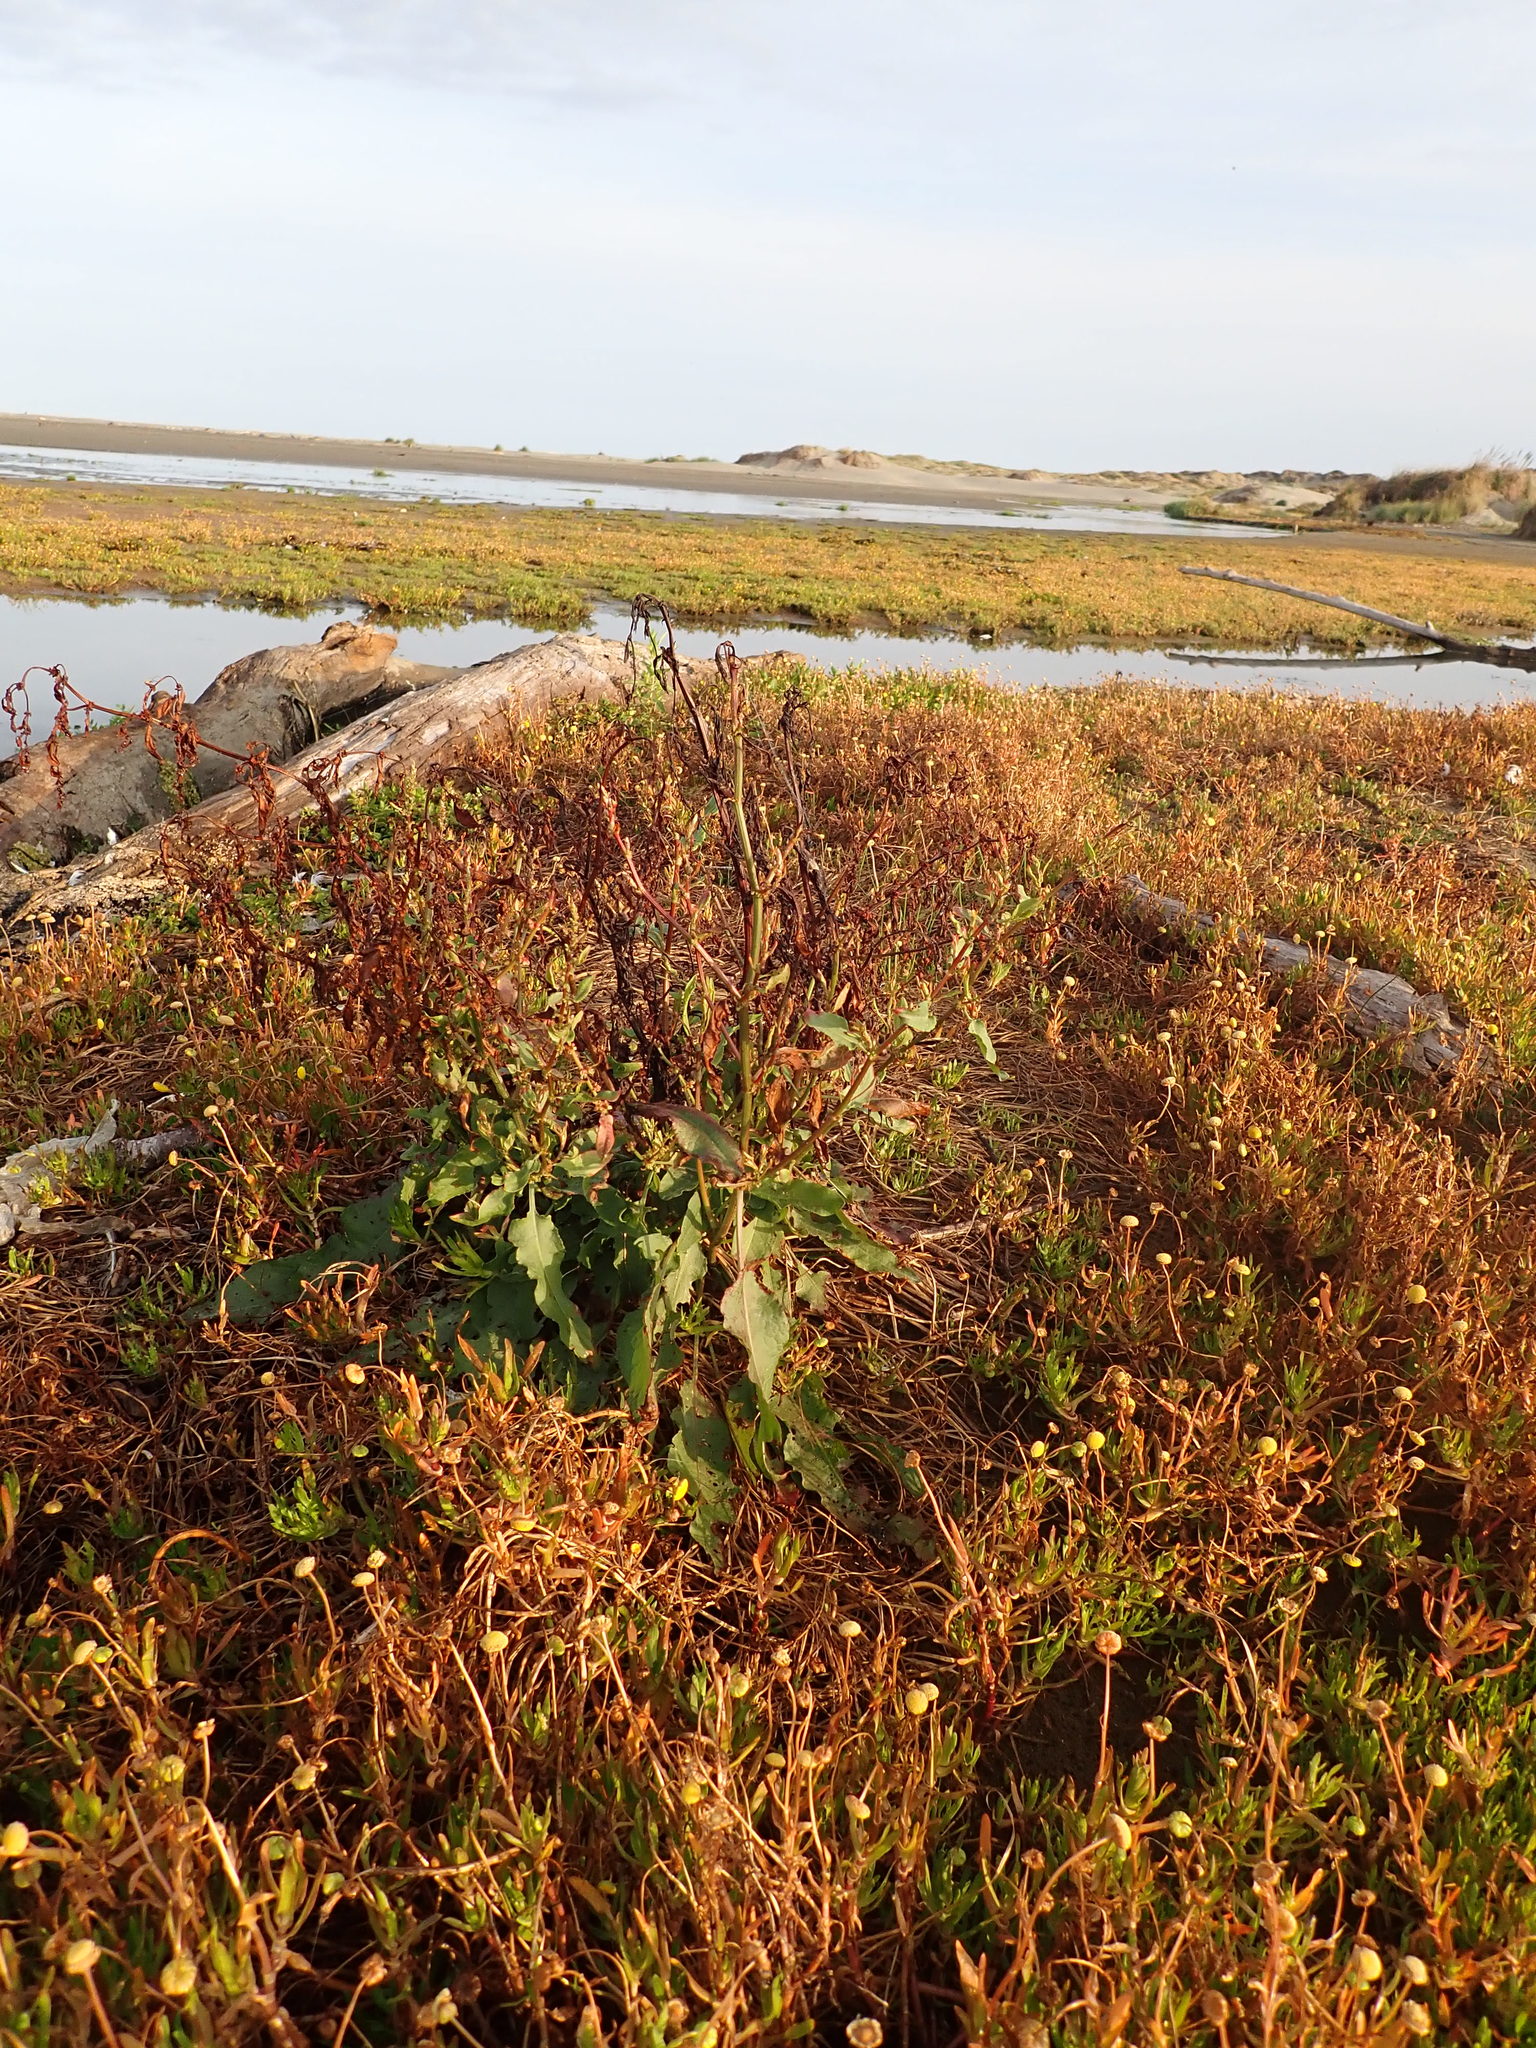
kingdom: Plantae
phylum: Tracheophyta
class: Magnoliopsida
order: Caryophyllales
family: Polygonaceae
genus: Rumex
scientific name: Rumex crispus
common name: Curled dock
